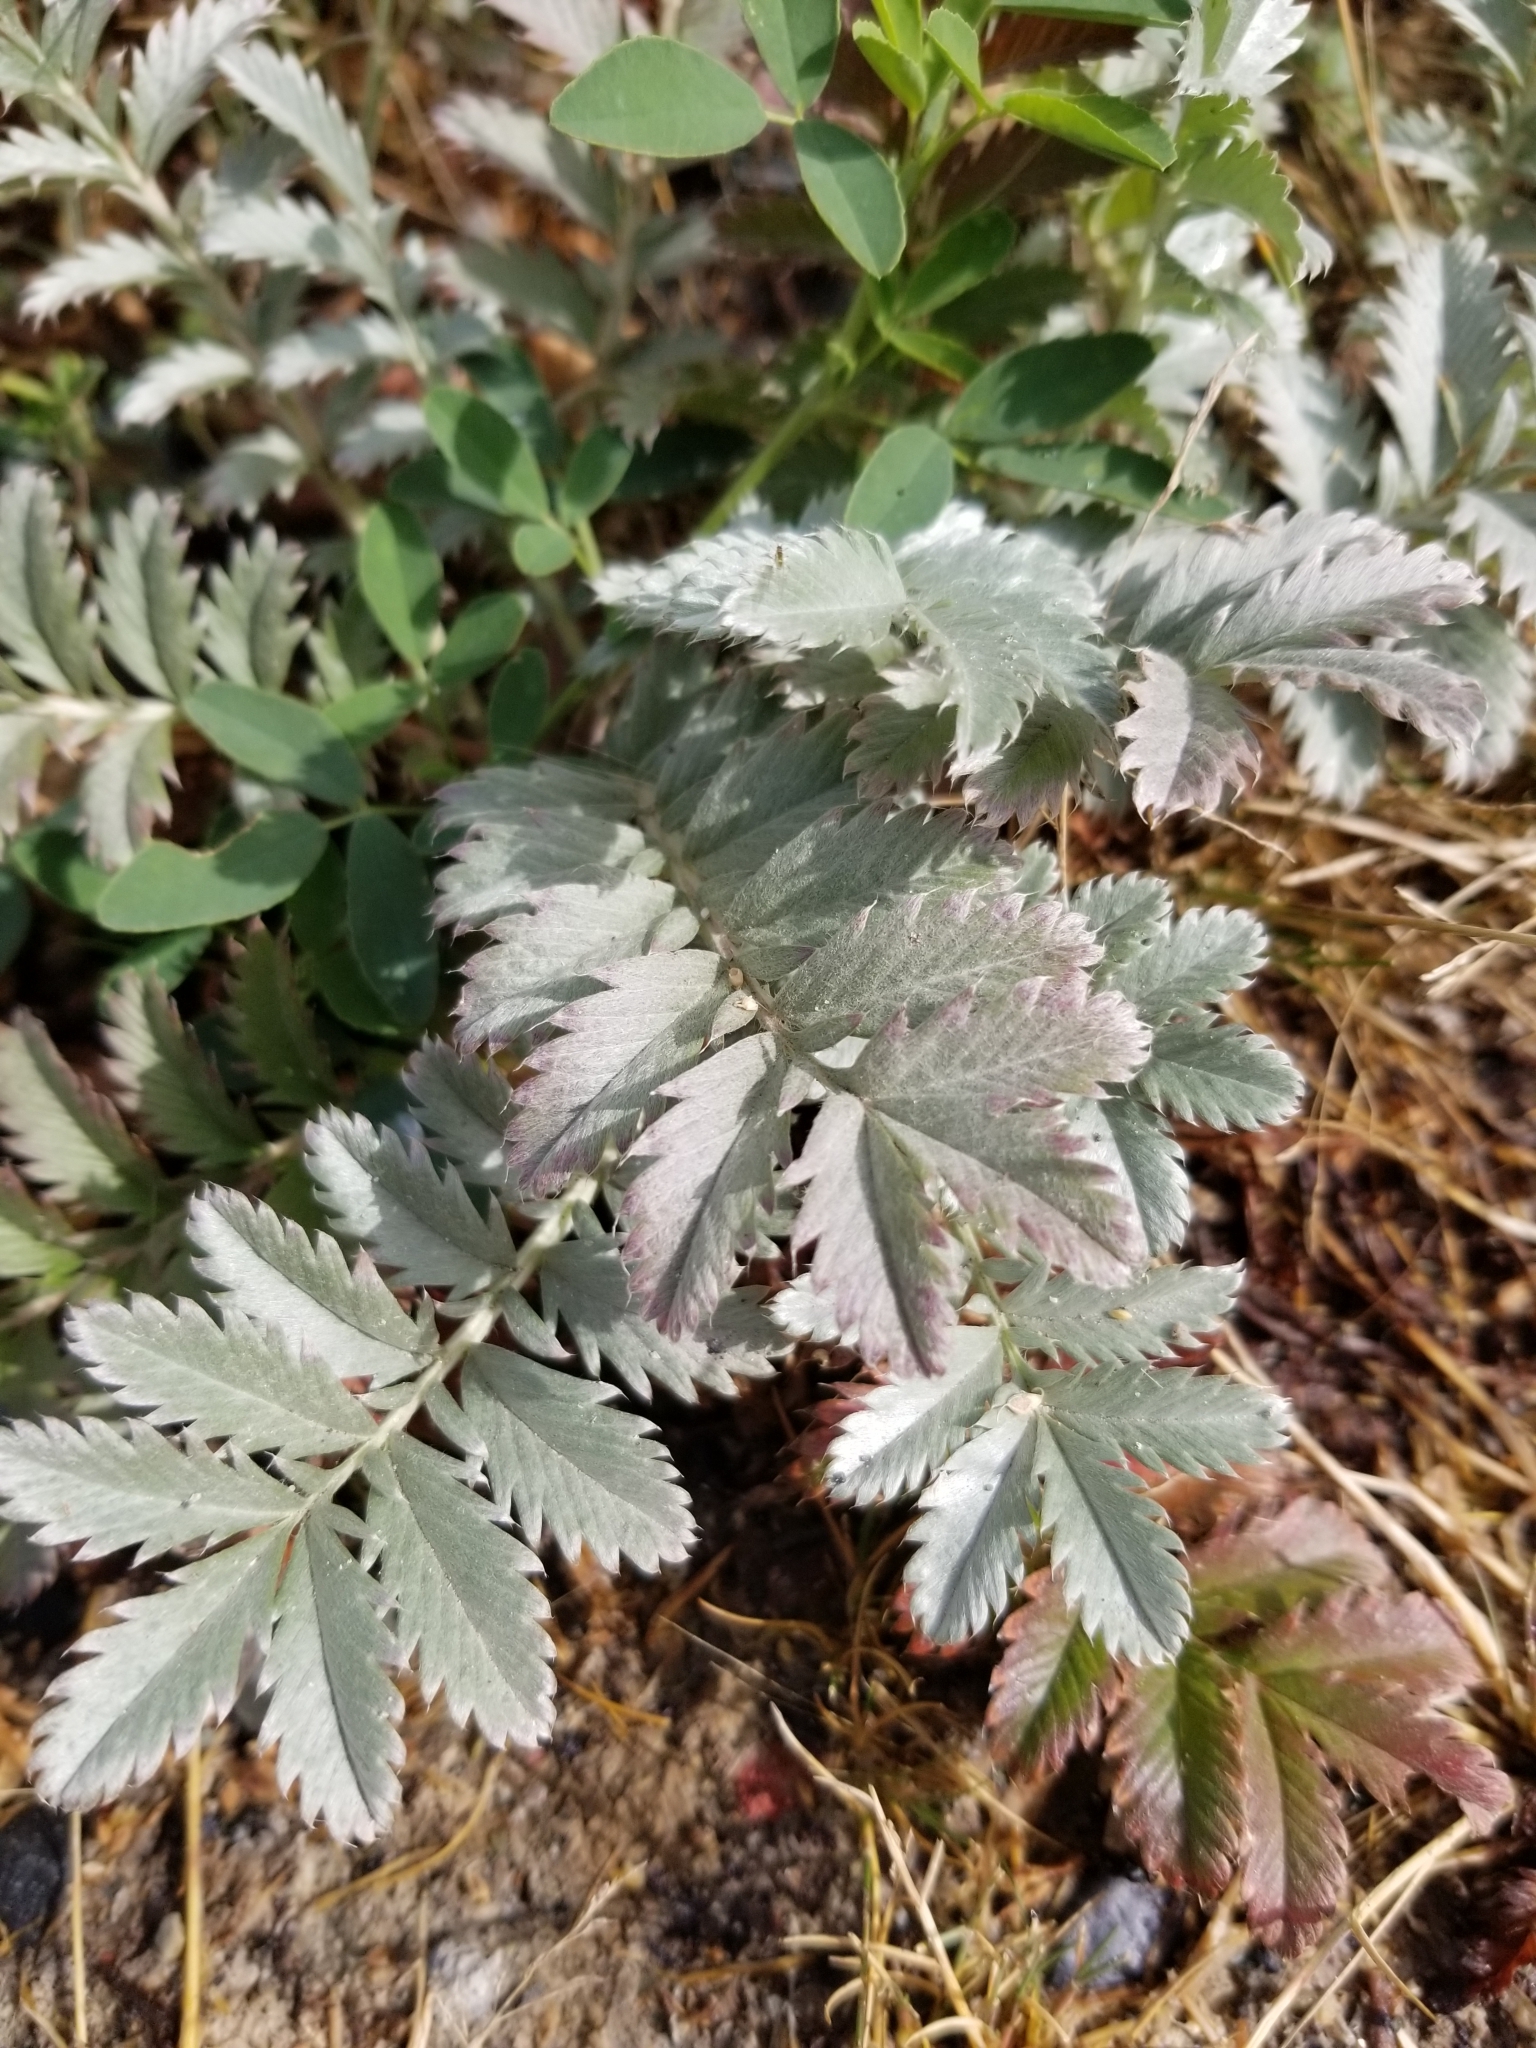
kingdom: Plantae
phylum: Tracheophyta
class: Magnoliopsida
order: Rosales
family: Rosaceae
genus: Argentina
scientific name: Argentina anserina
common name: Common silverweed
